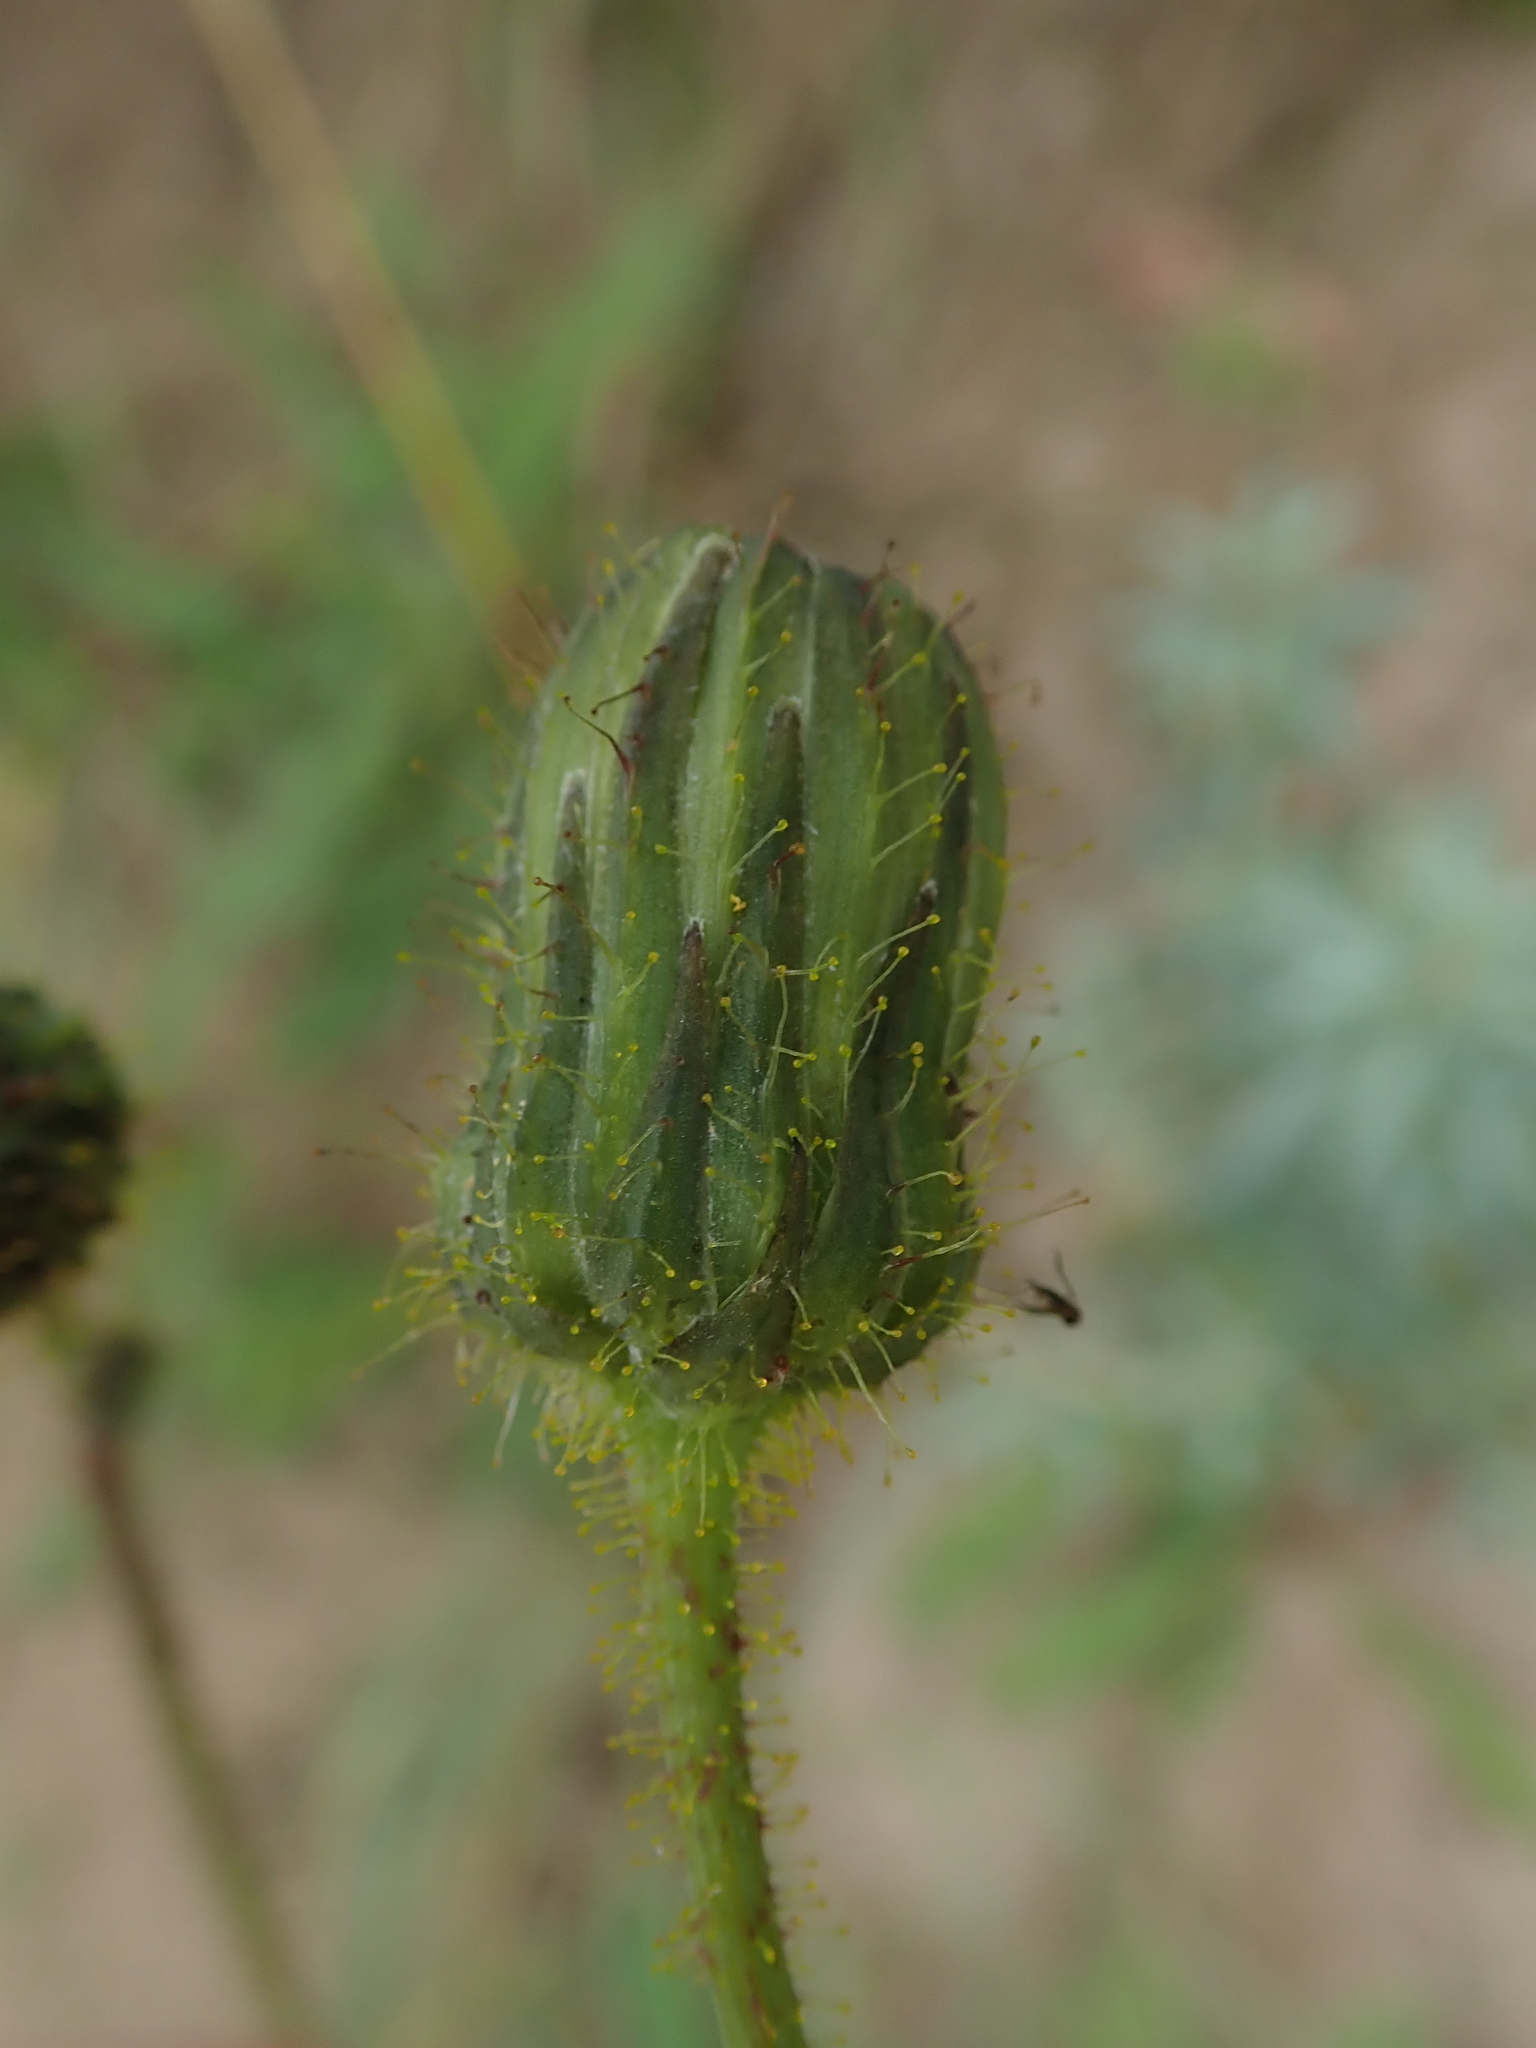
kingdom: Plantae
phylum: Tracheophyta
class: Magnoliopsida
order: Asterales
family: Asteraceae
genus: Sonchus
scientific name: Sonchus arvensis
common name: Perennial sow-thistle
